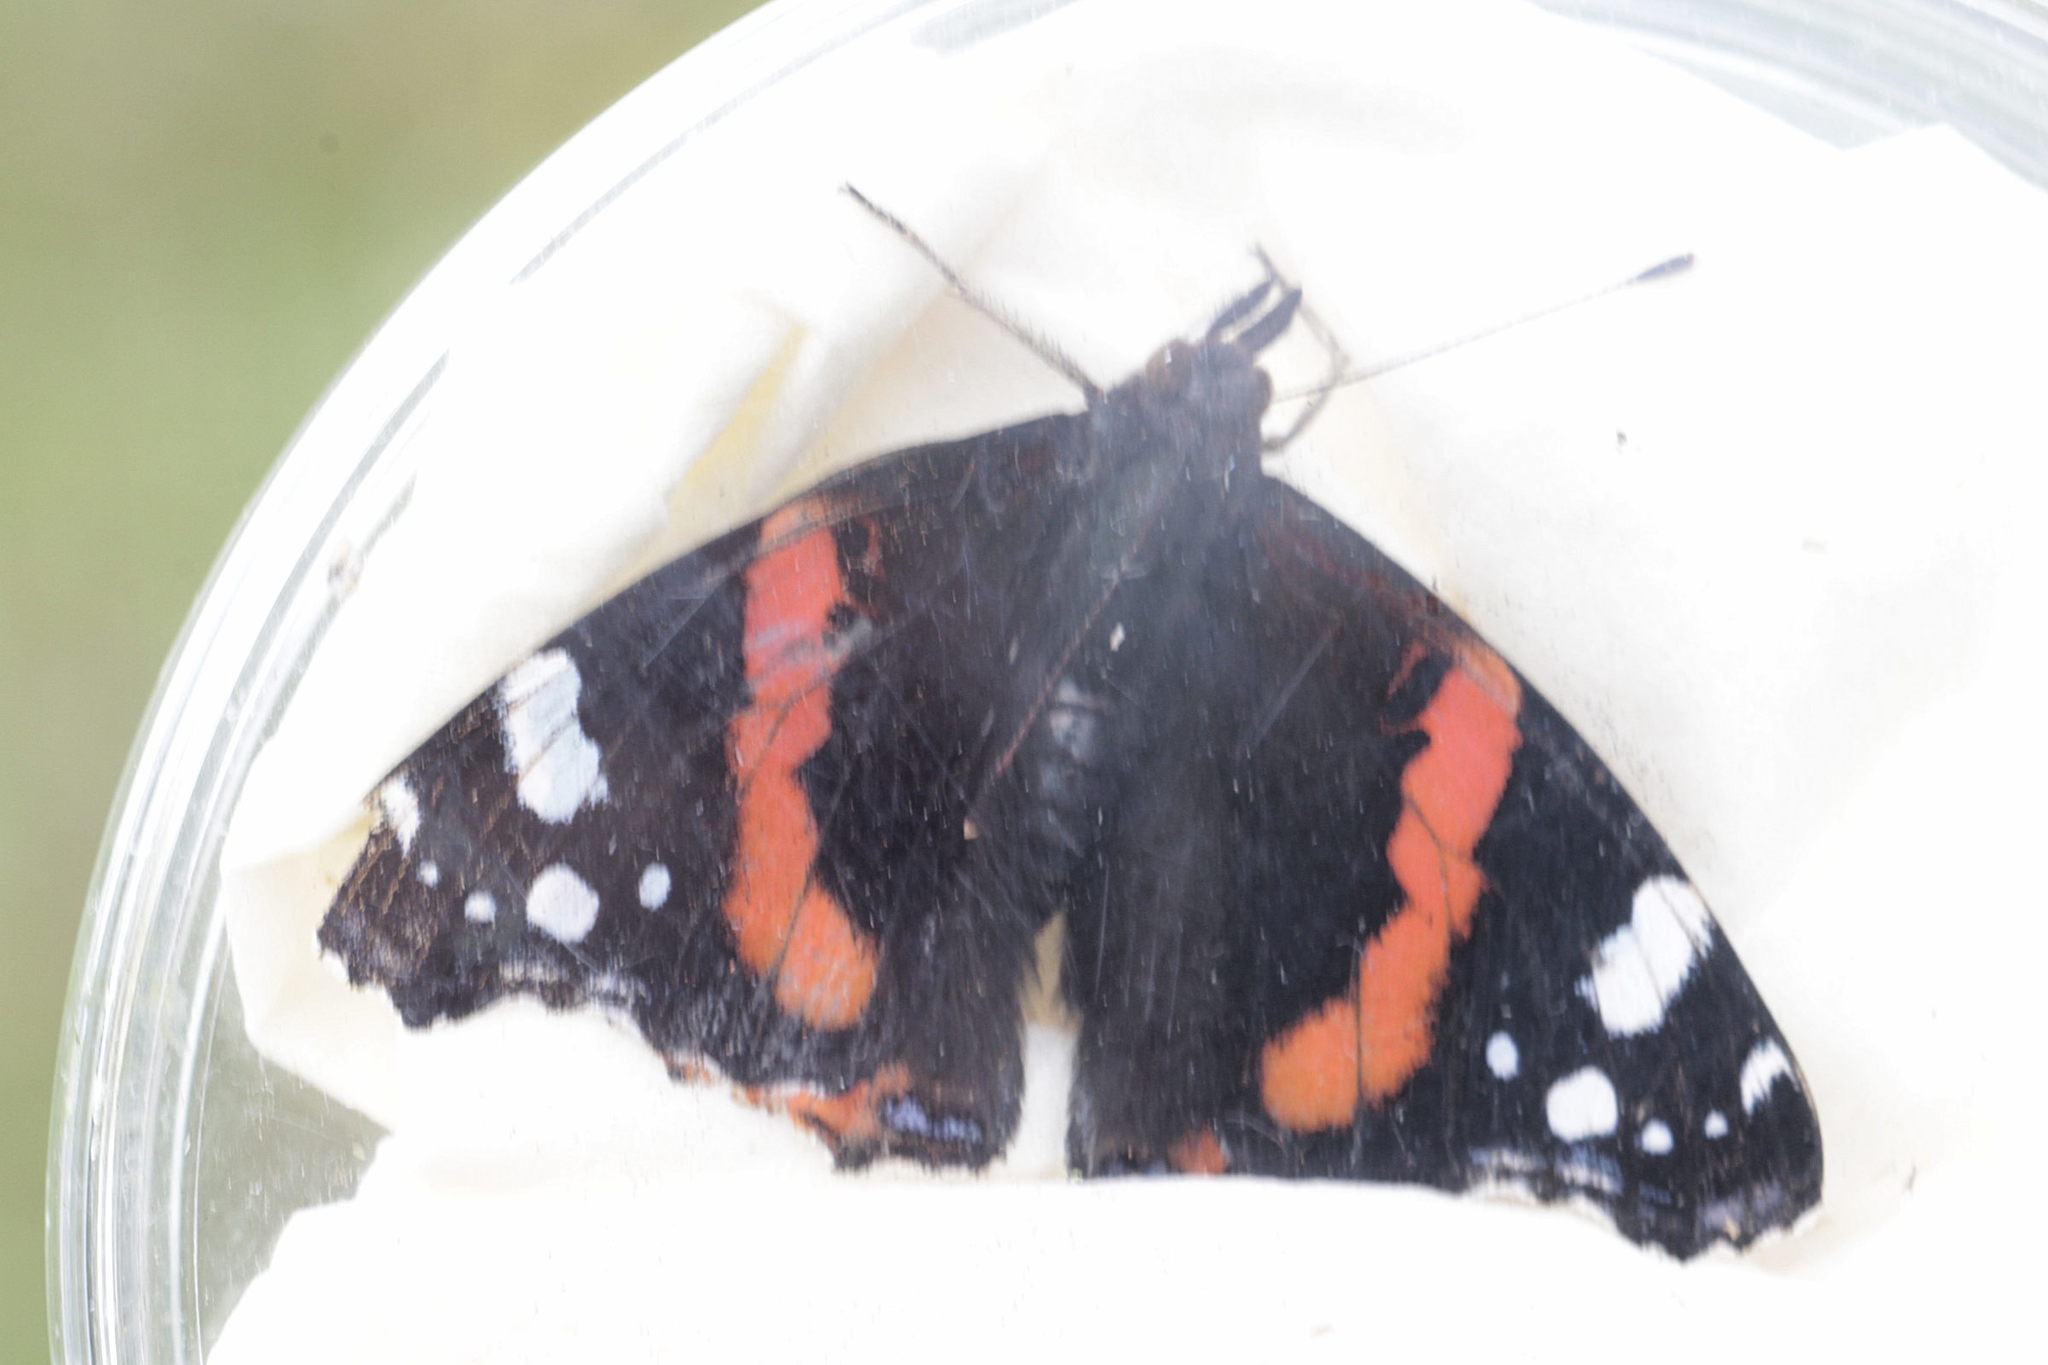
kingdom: Animalia
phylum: Arthropoda
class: Insecta
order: Lepidoptera
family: Nymphalidae
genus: Vanessa
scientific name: Vanessa atalanta
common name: Red admiral
